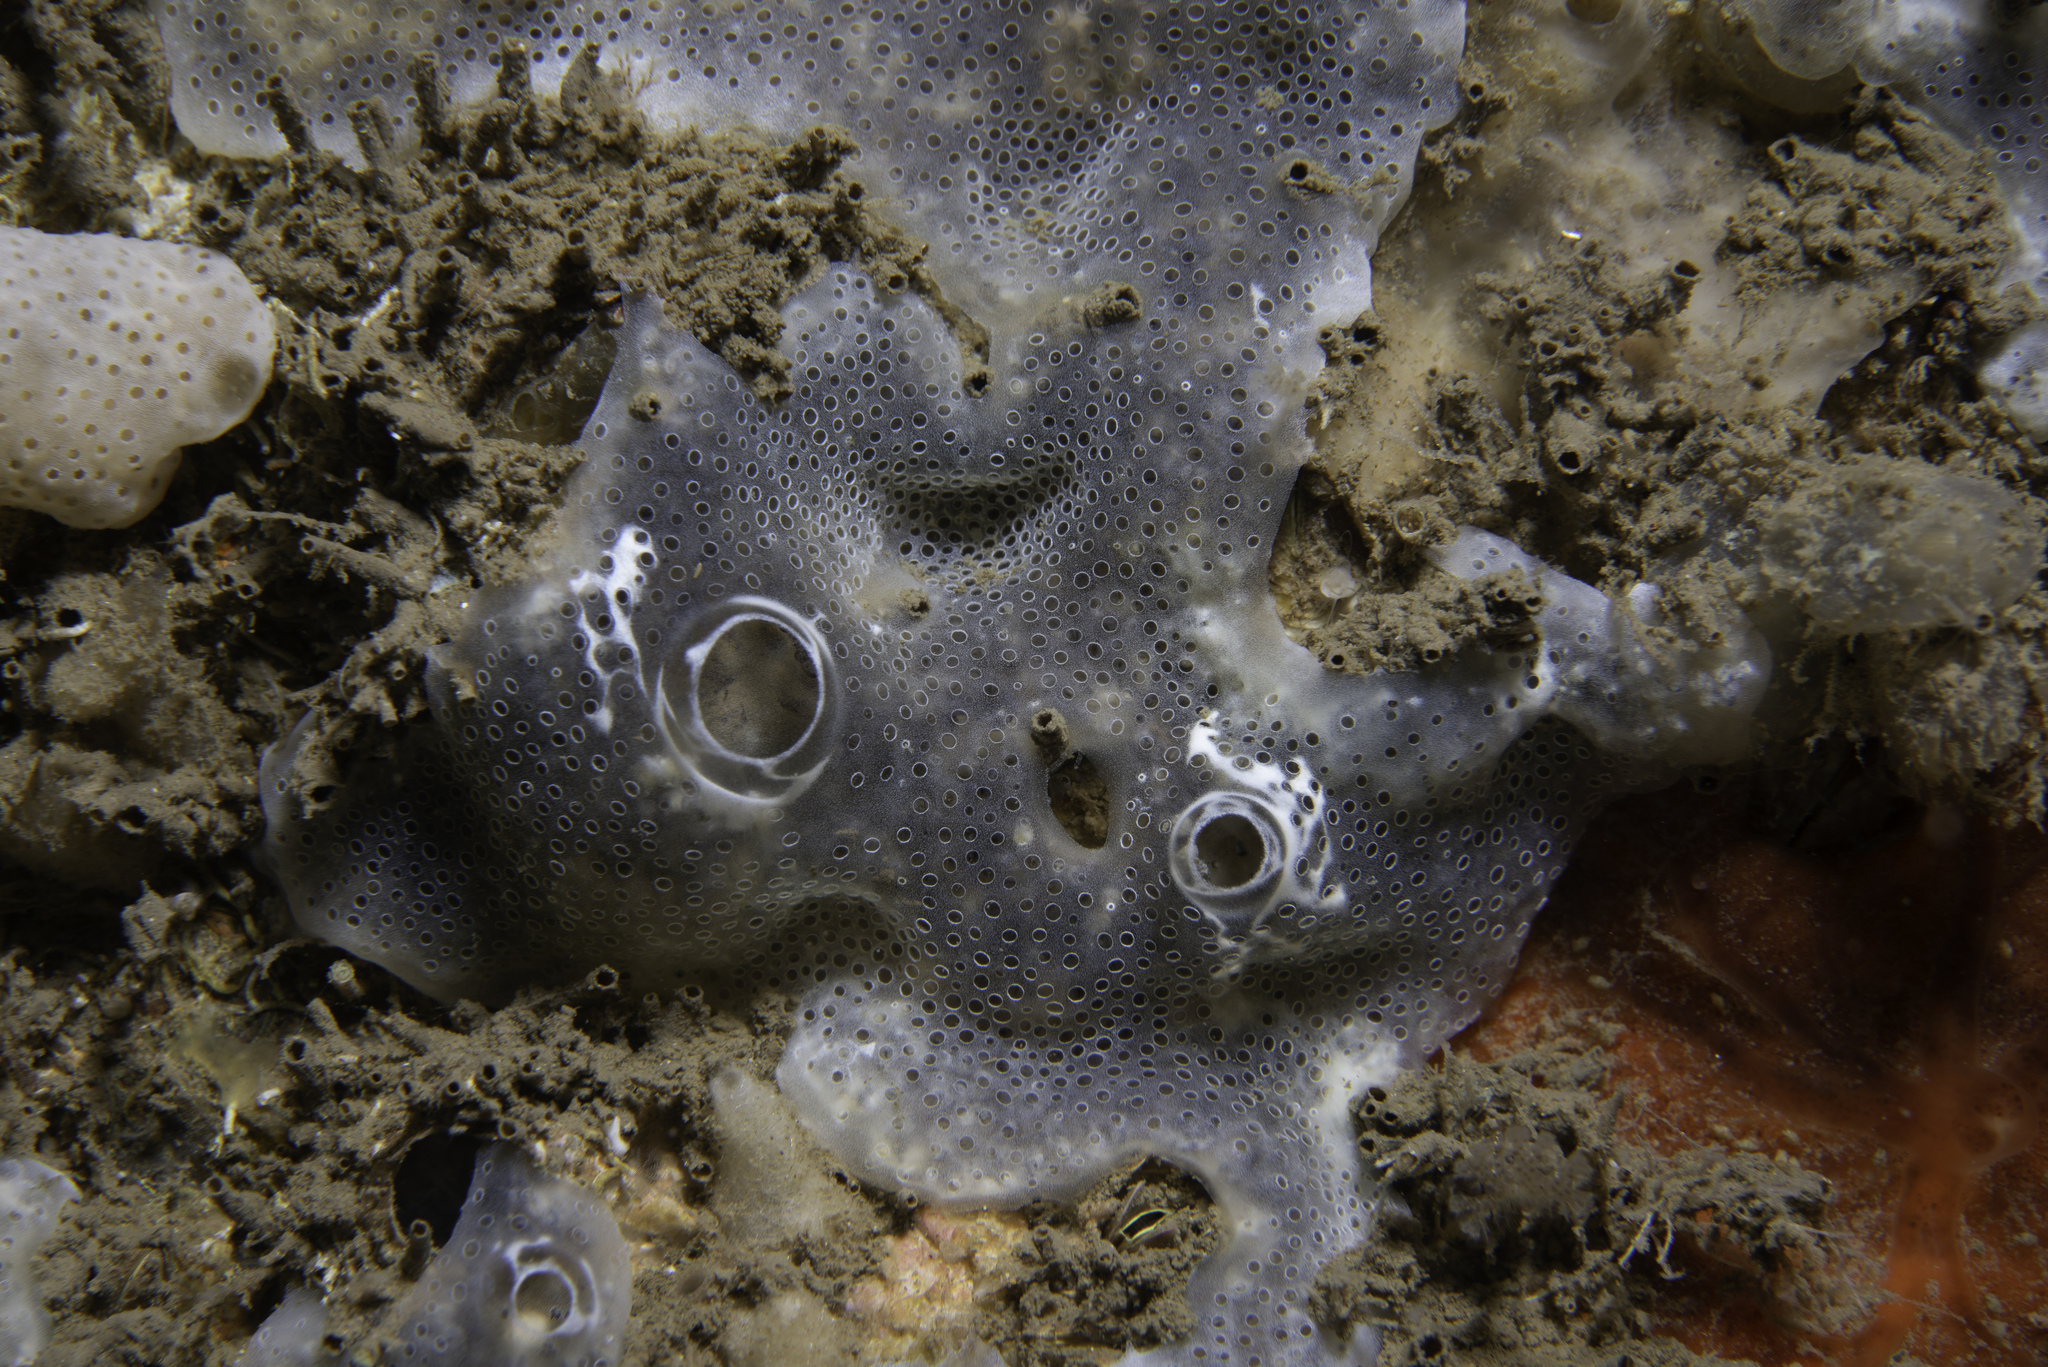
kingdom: Animalia
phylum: Chordata
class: Ascidiacea
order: Aplousobranchia
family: Didemnidae
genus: Diplosoma
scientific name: Diplosoma spongiforme
